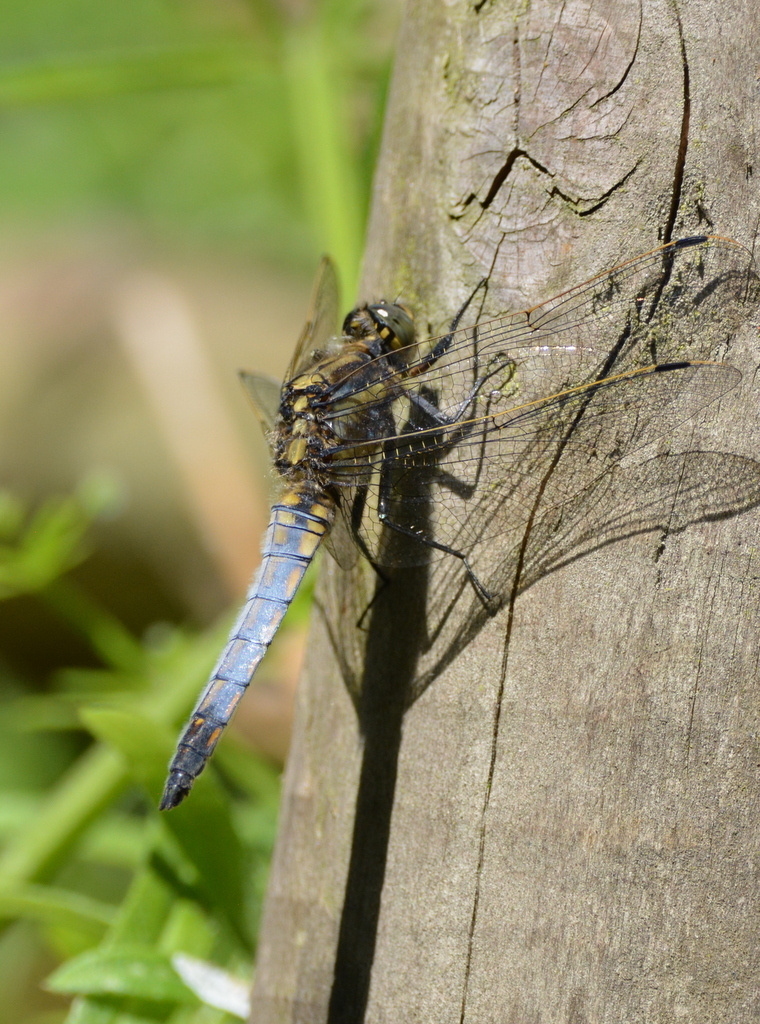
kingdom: Animalia
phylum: Arthropoda
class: Insecta
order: Odonata
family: Libellulidae
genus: Orthetrum
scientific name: Orthetrum cancellatum
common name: Black-tailed skimmer
